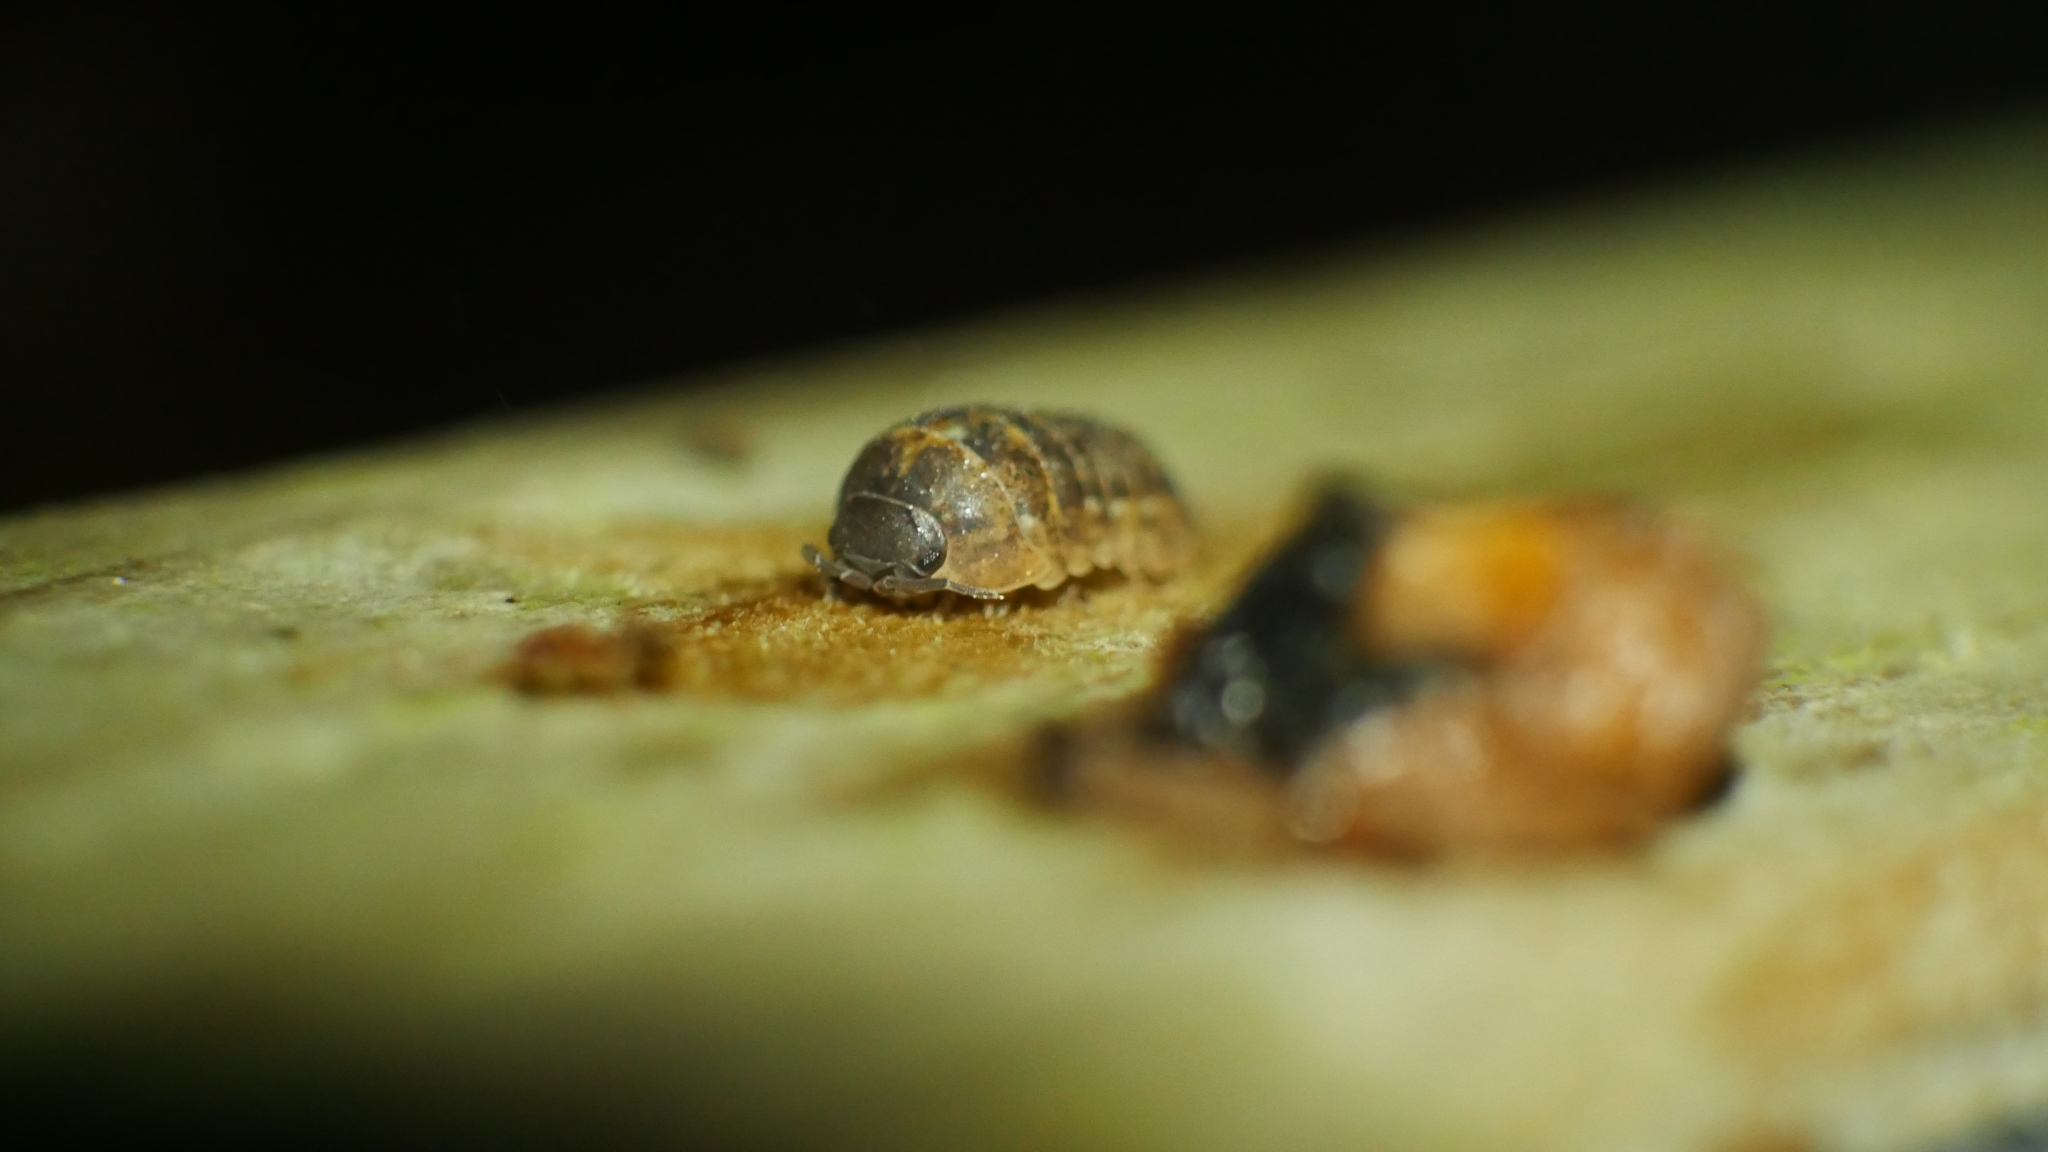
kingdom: Animalia
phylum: Arthropoda
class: Malacostraca
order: Isopoda
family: Armadillidiidae
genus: Armadillidium
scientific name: Armadillidium vulgare
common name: Common pill woodlouse
